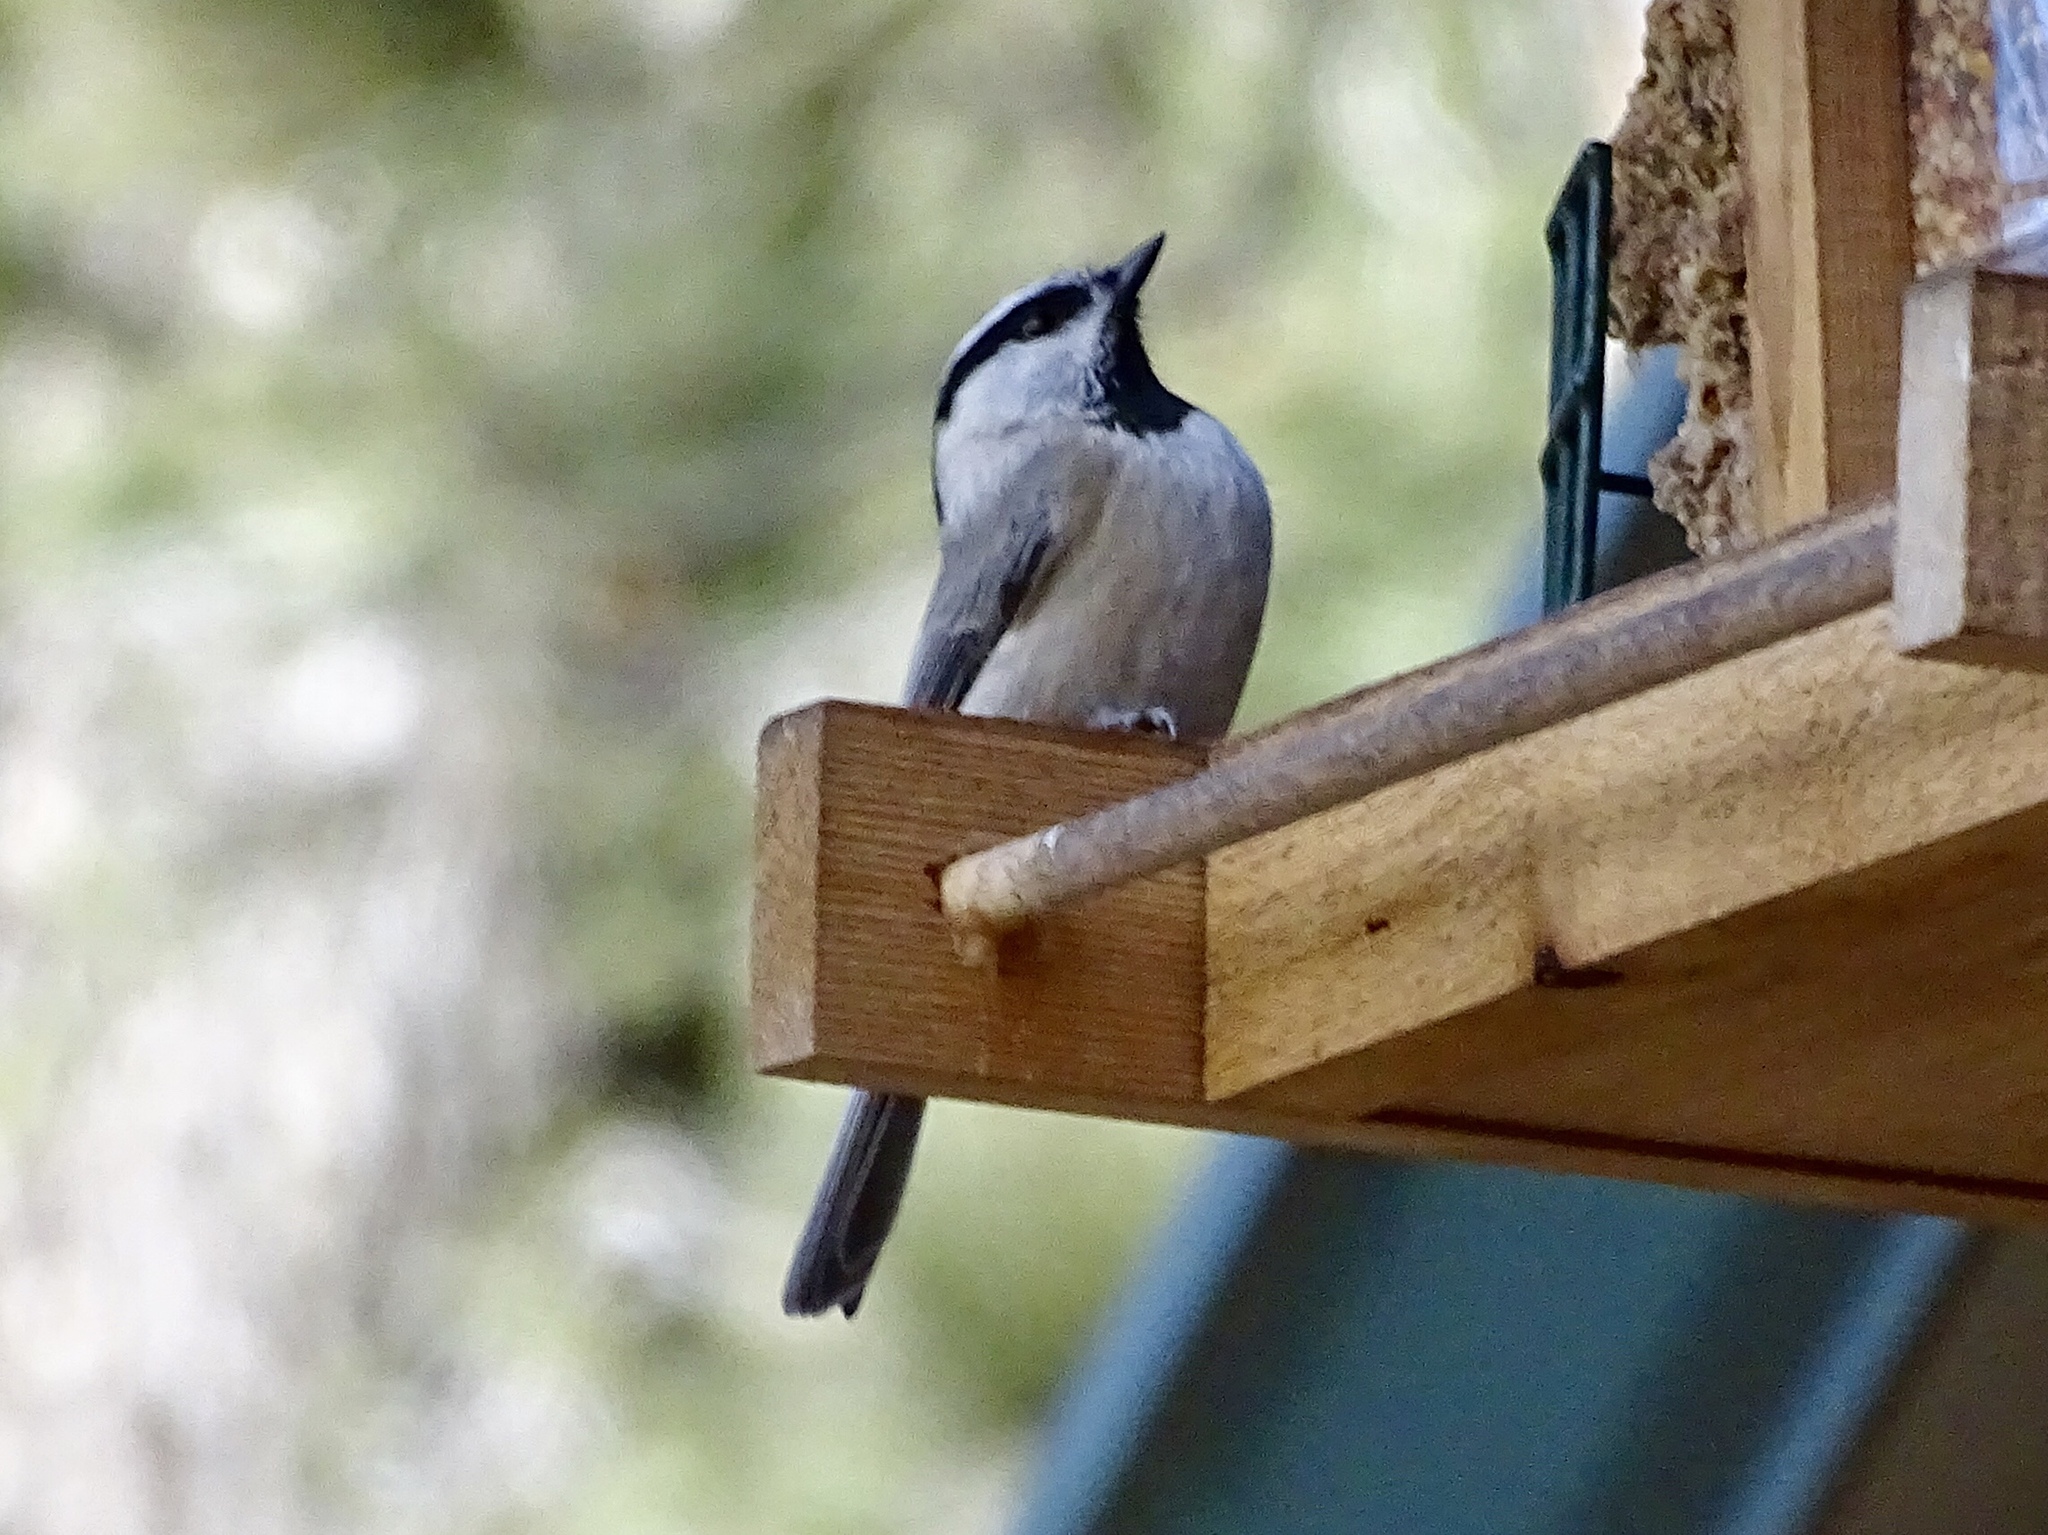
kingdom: Animalia
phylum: Chordata
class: Aves
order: Passeriformes
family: Paridae
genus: Poecile
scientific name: Poecile gambeli
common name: Mountain chickadee
